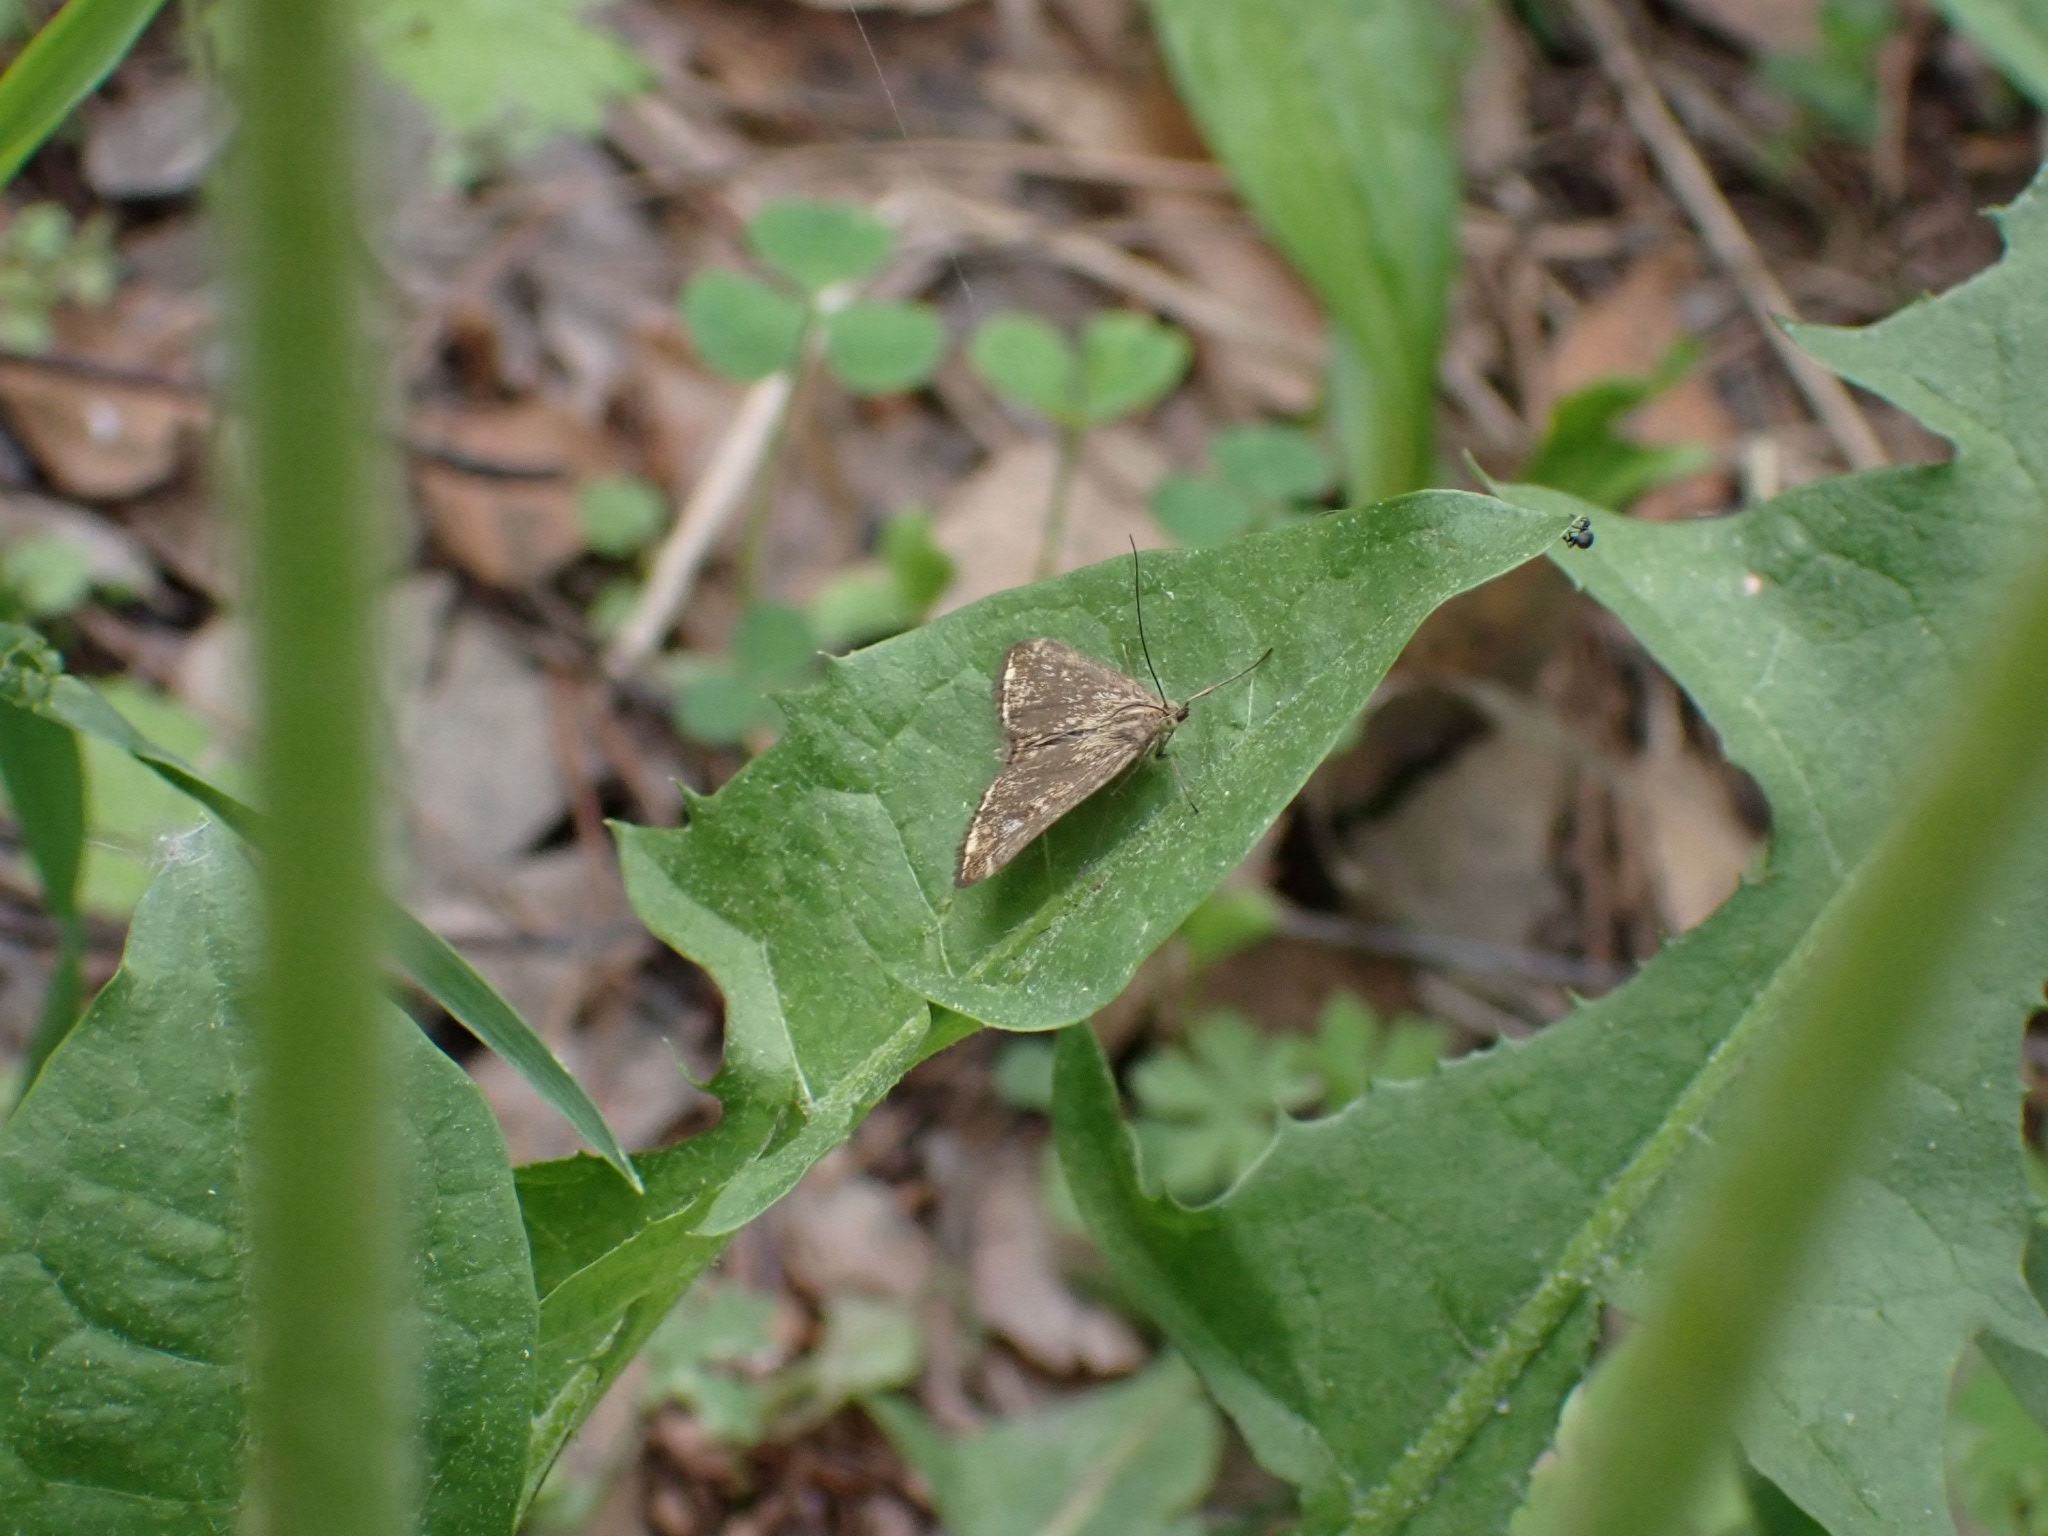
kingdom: Animalia
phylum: Arthropoda
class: Insecta
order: Lepidoptera
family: Crambidae
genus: Loxostege
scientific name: Loxostege sticticalis
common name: Crambid moth
